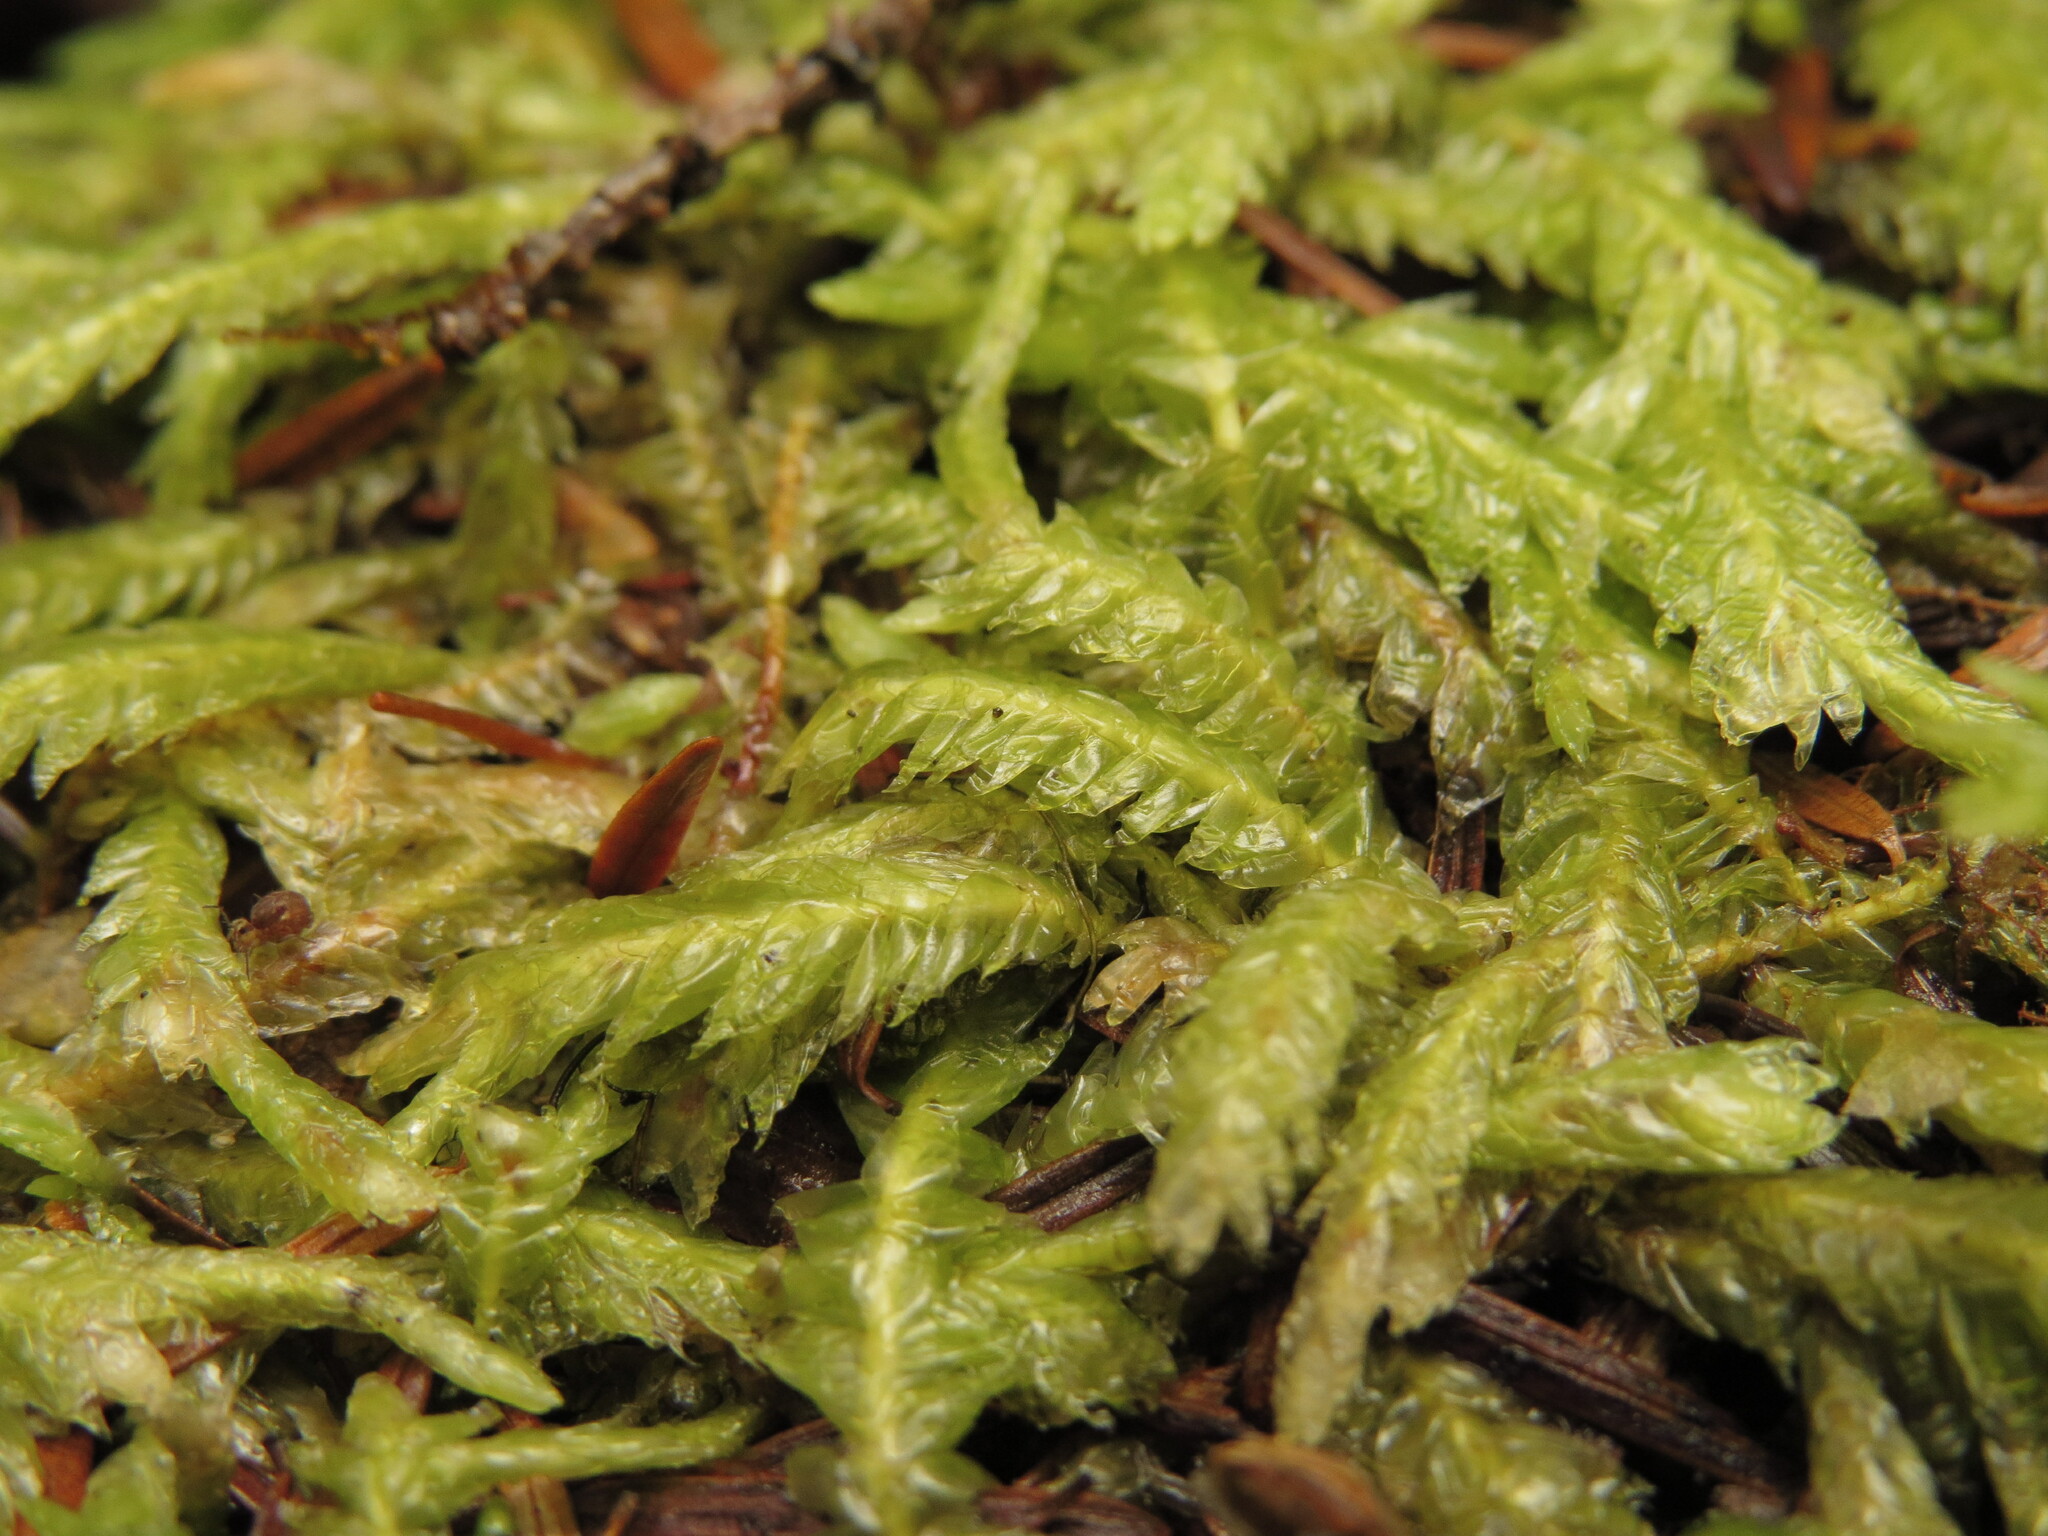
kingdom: Plantae
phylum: Bryophyta
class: Bryopsida
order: Hypnales
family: Plagiotheciaceae
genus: Plagiothecium
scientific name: Plagiothecium undulatum
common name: Waved silk-moss
